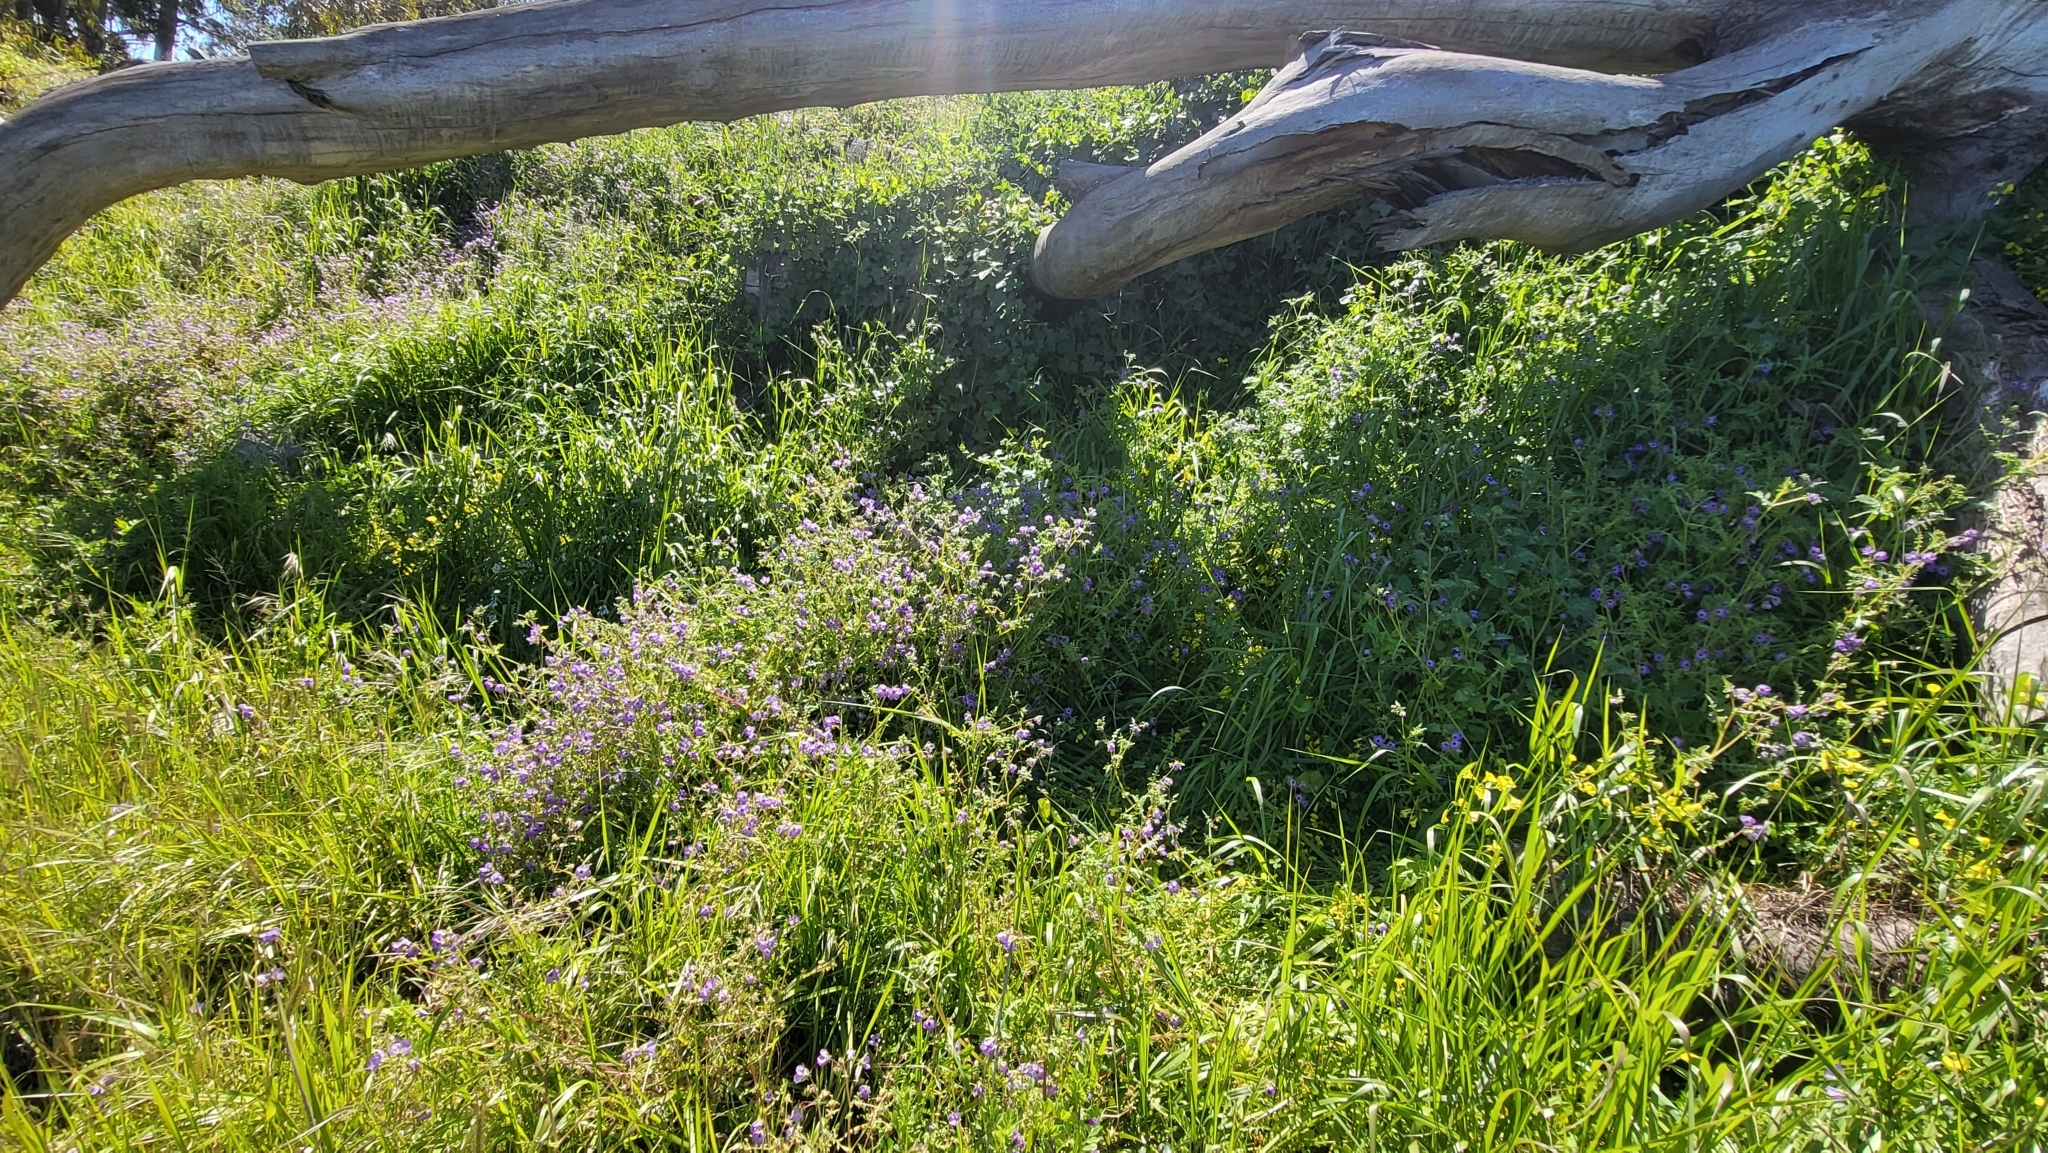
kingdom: Plantae
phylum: Tracheophyta
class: Magnoliopsida
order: Boraginales
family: Hydrophyllaceae
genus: Pholistoma
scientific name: Pholistoma auritum
